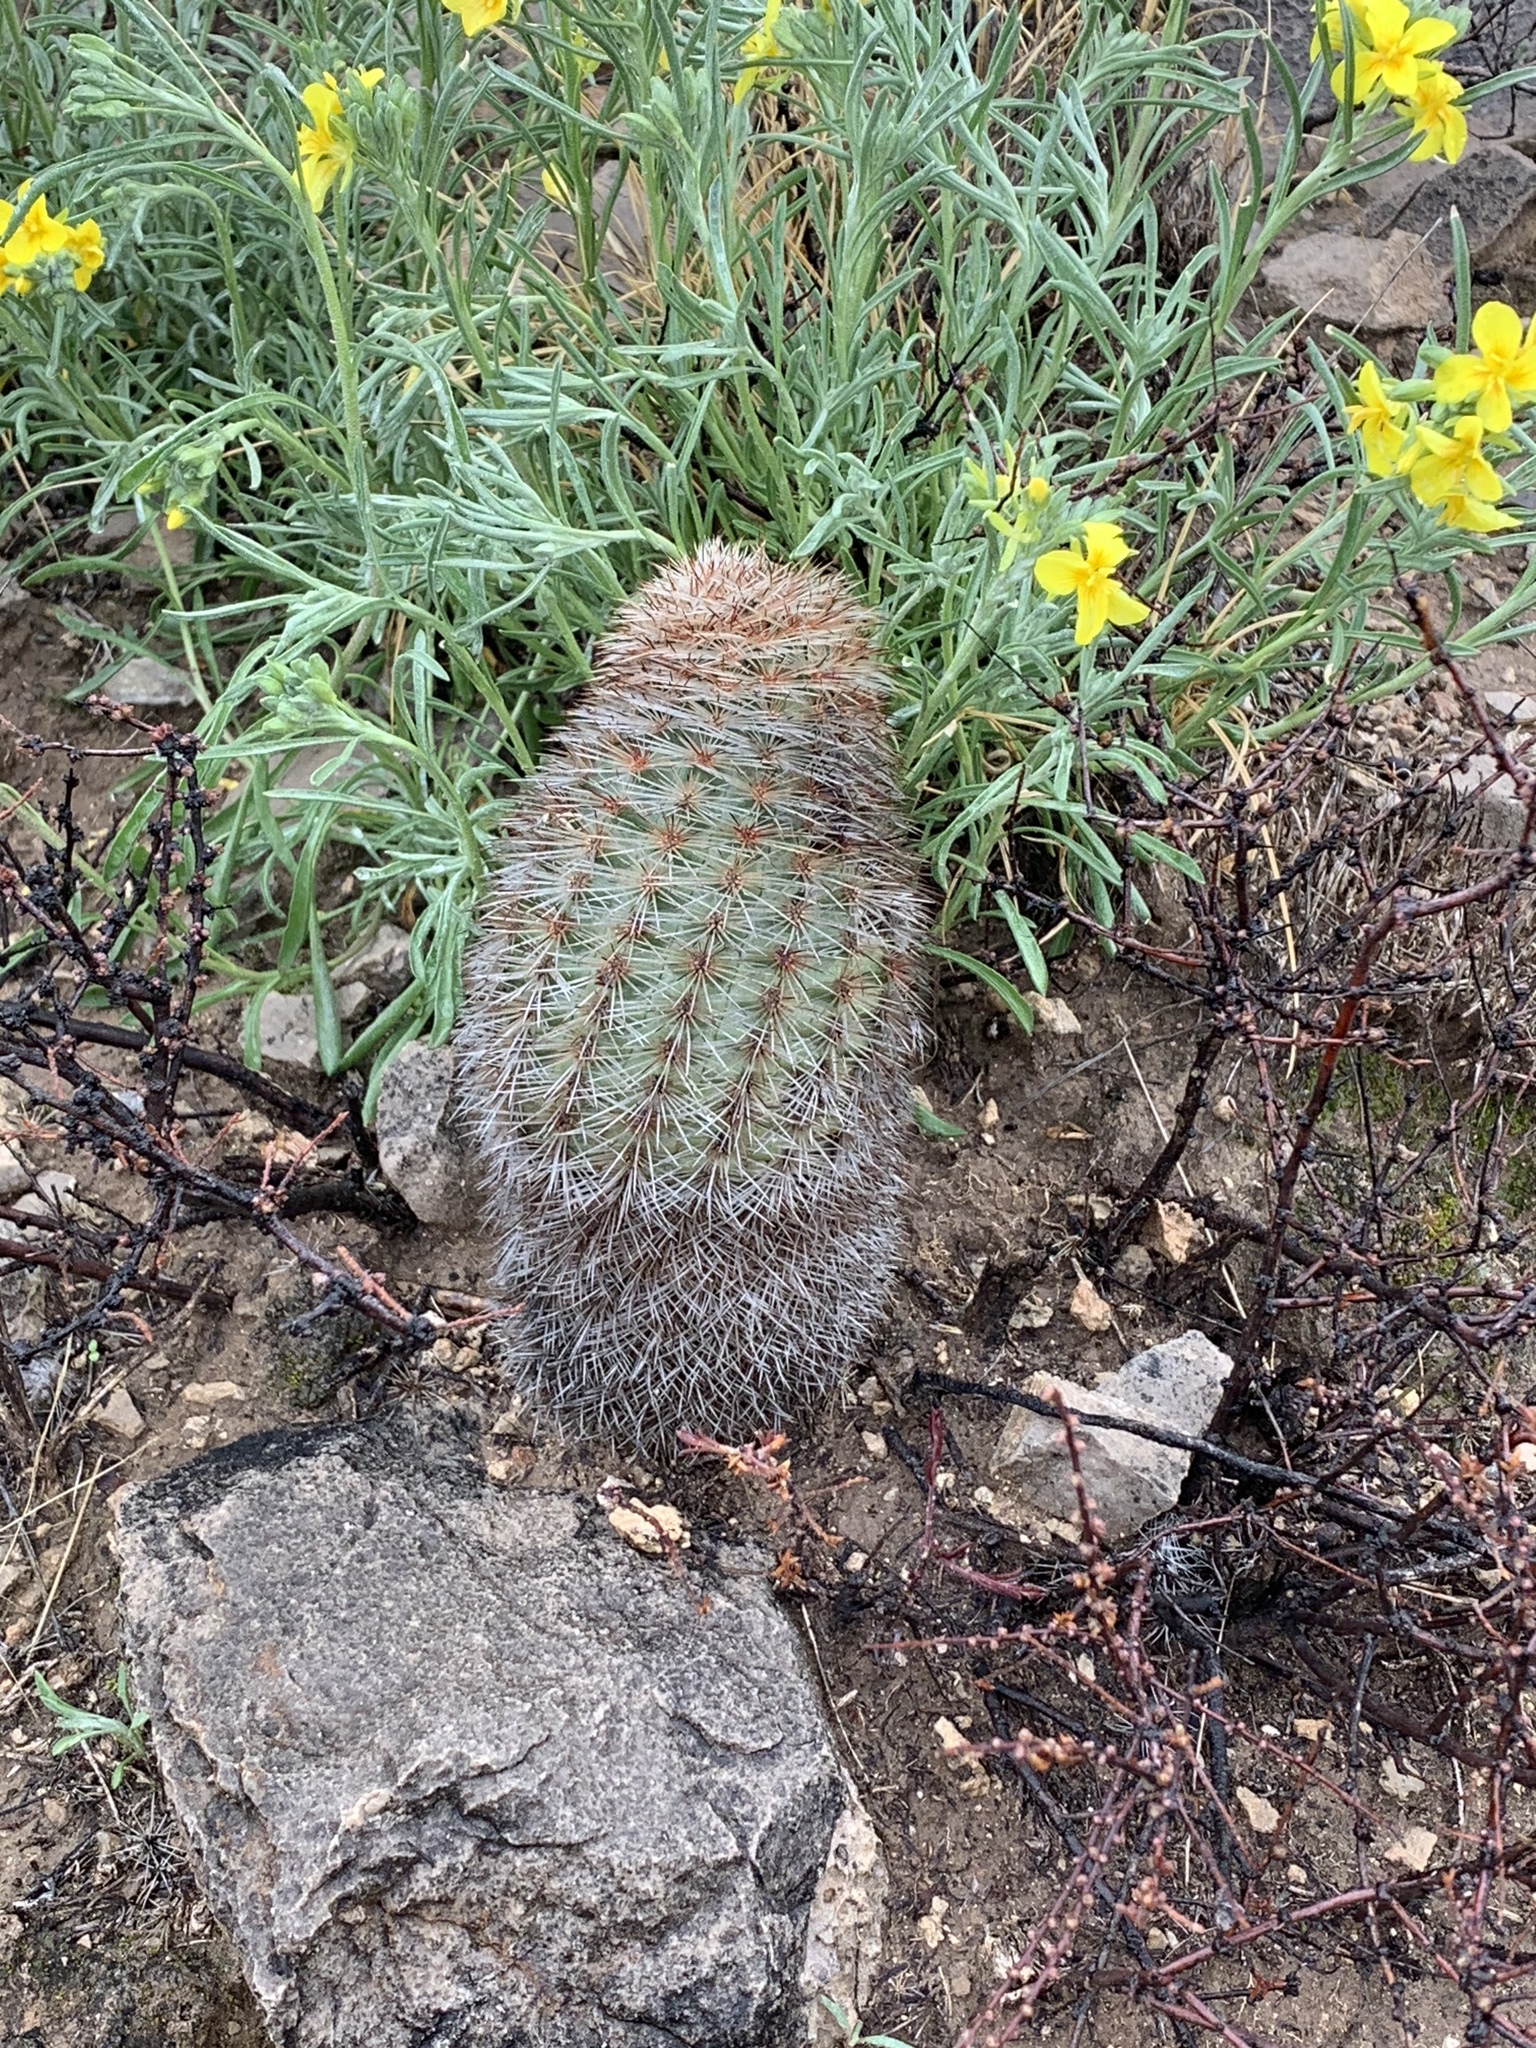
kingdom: Plantae
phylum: Tracheophyta
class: Magnoliopsida
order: Caryophyllales
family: Cactaceae
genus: Echinocereus
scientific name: Echinocereus dasyacanthus
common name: Spiny hedgehog cactus
